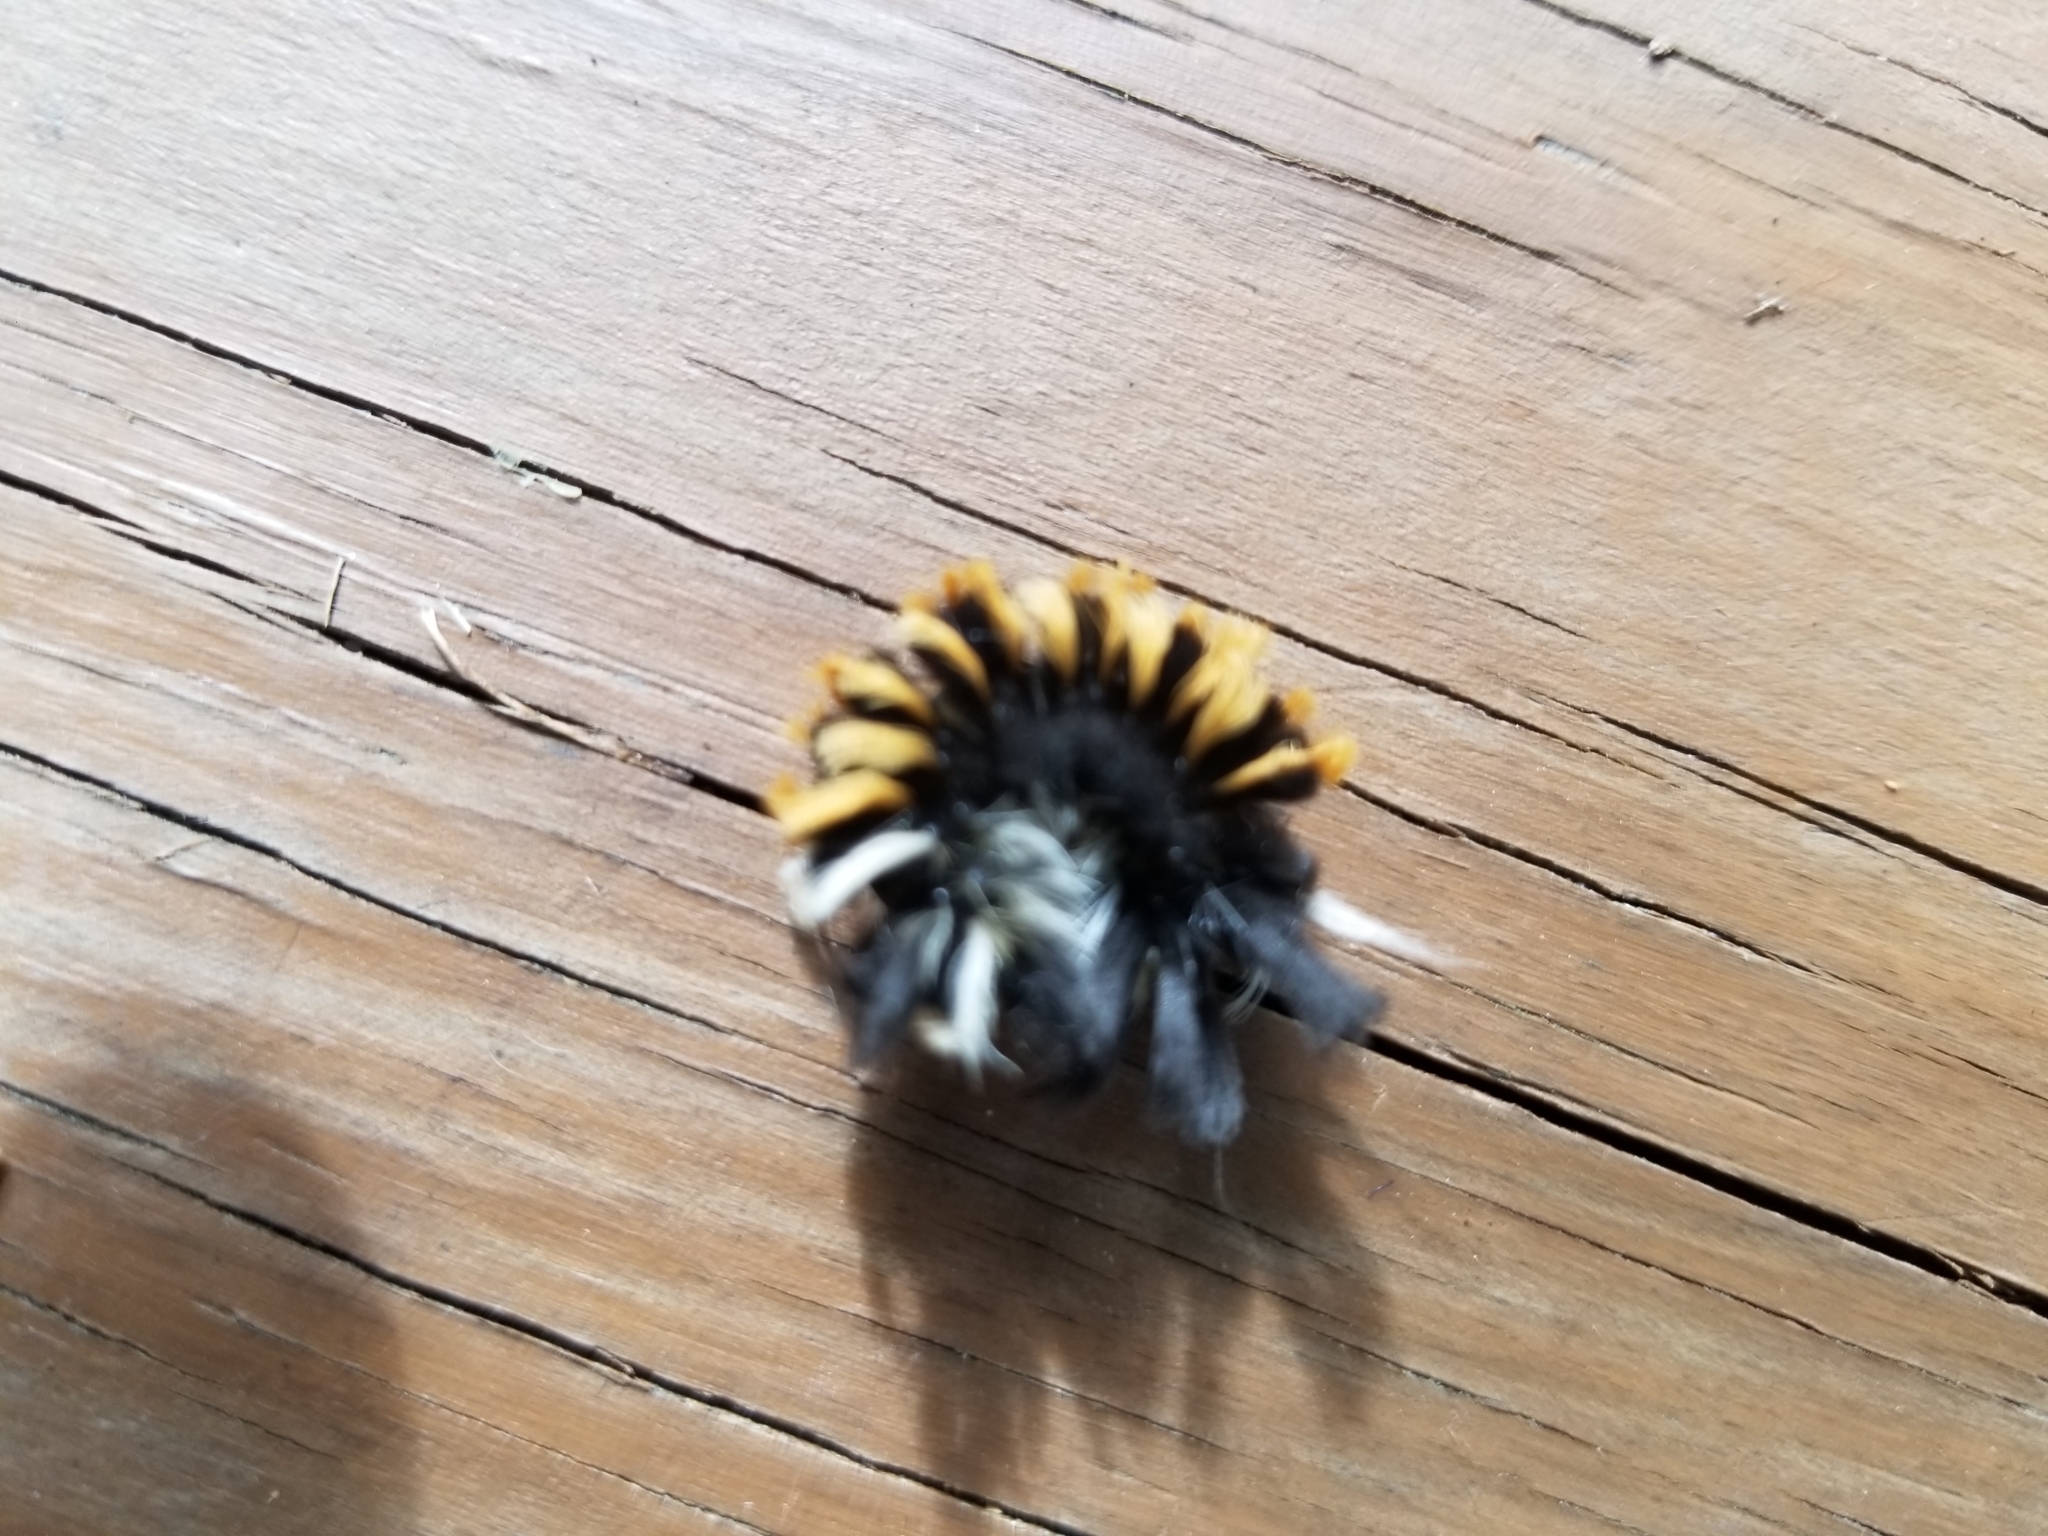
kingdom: Animalia
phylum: Arthropoda
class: Insecta
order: Lepidoptera
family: Erebidae
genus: Euchaetes
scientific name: Euchaetes egle
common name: Milkweed tussock moth
